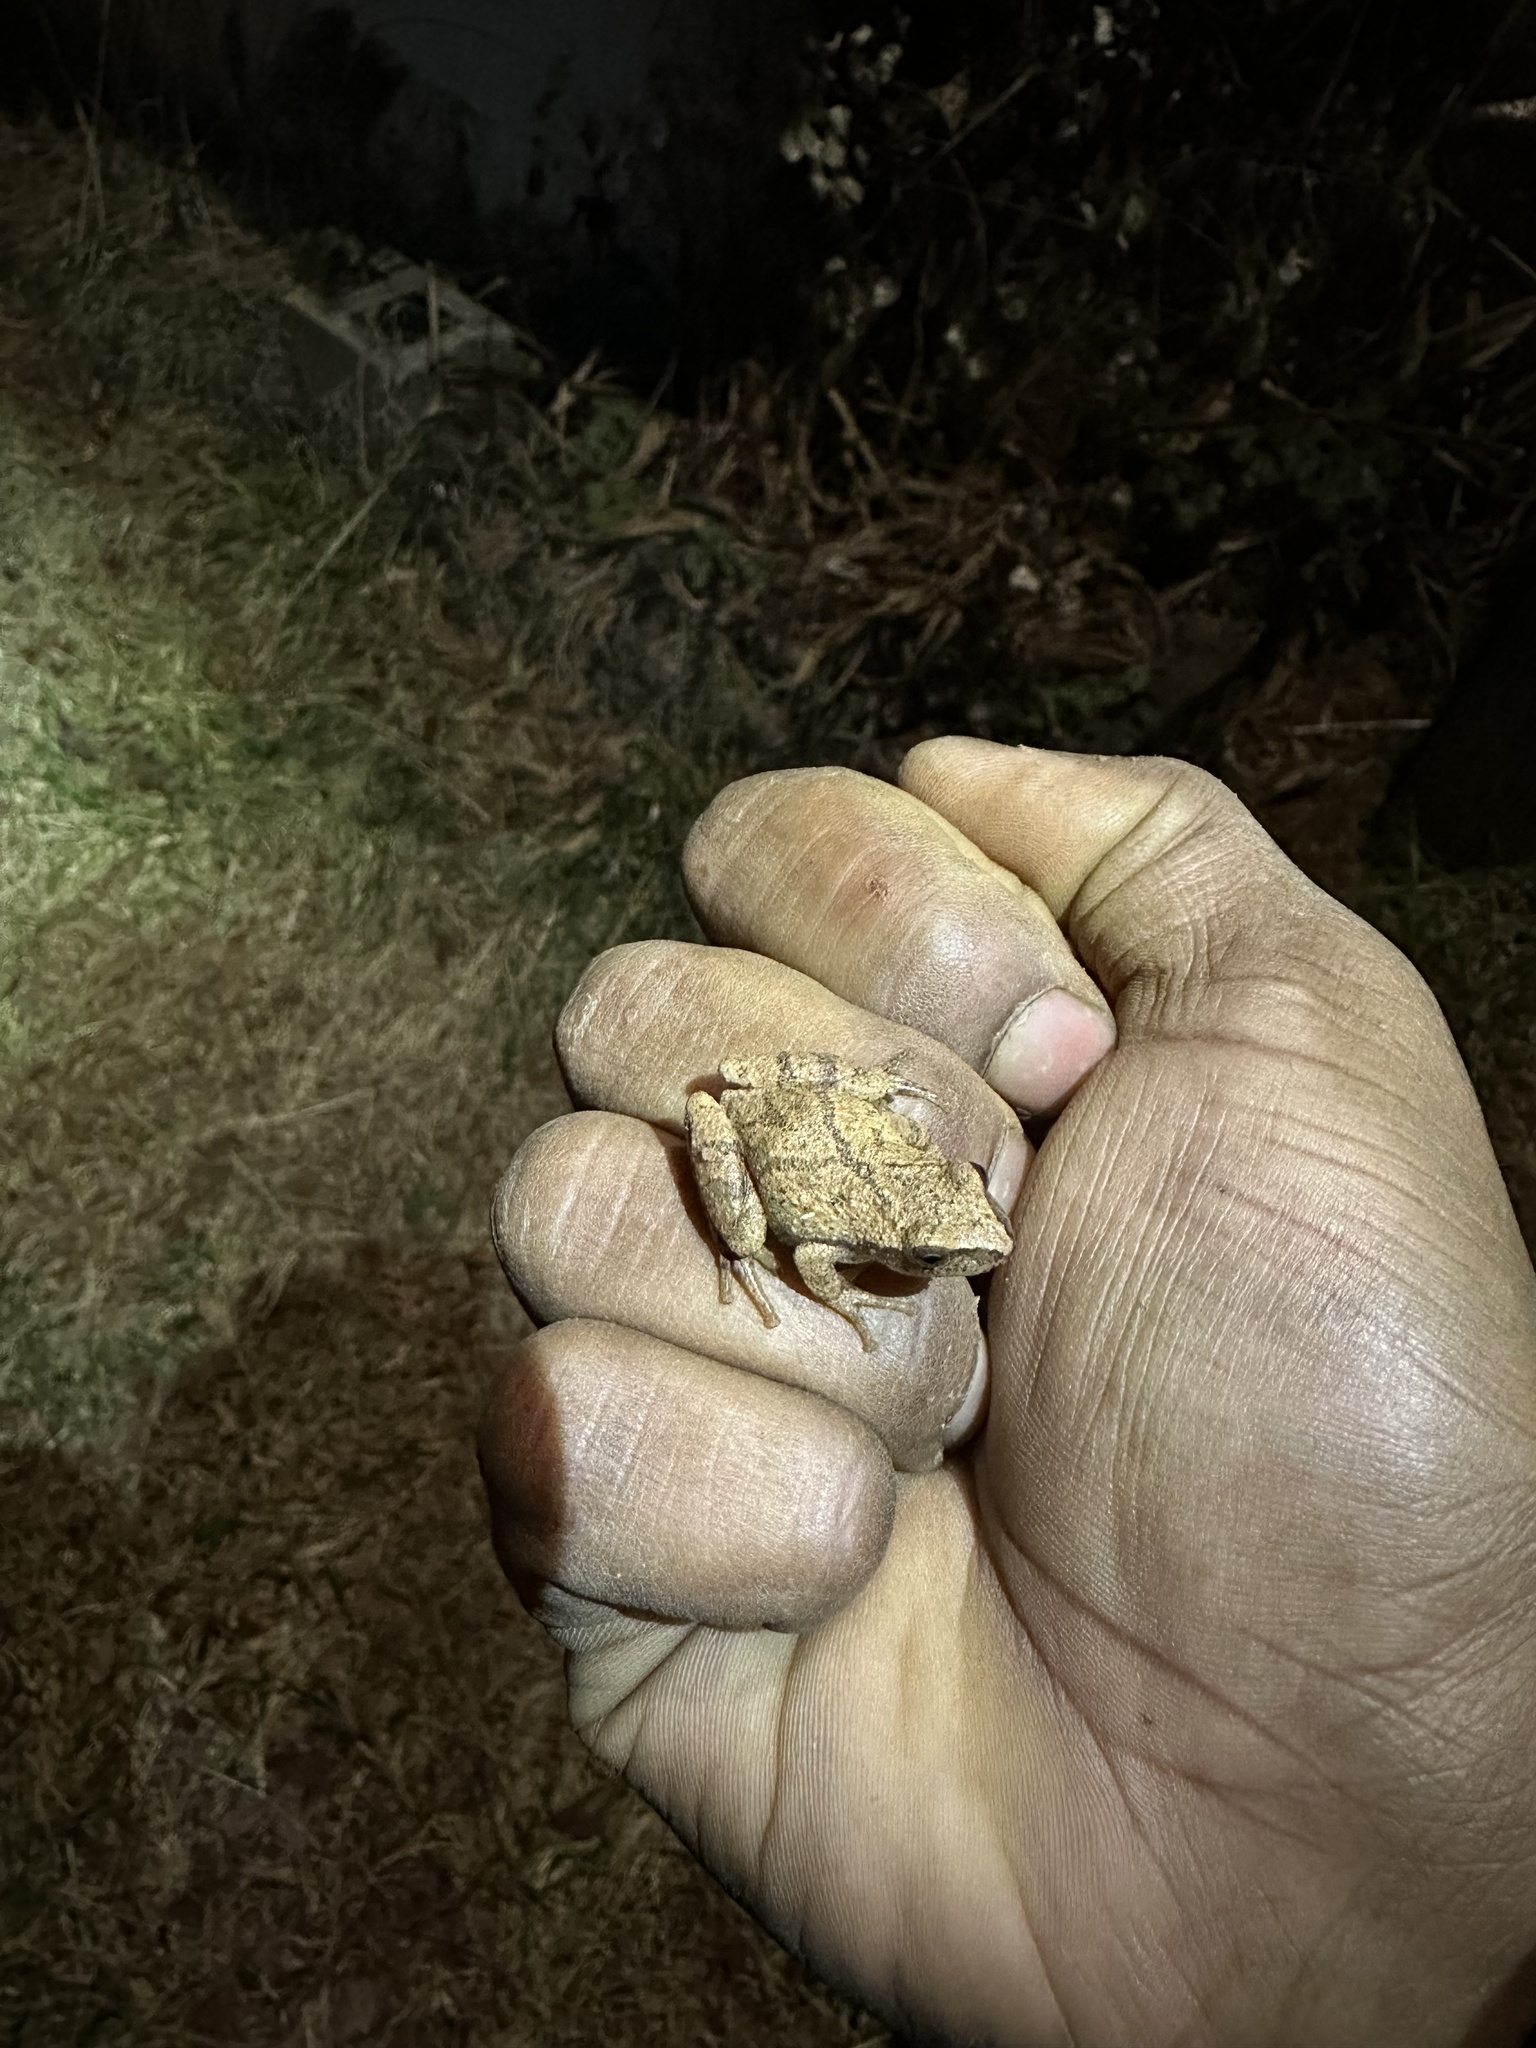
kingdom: Animalia
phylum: Chordata
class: Amphibia
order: Anura
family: Hylidae
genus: Pseudacris
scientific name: Pseudacris crucifer
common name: Spring peeper
